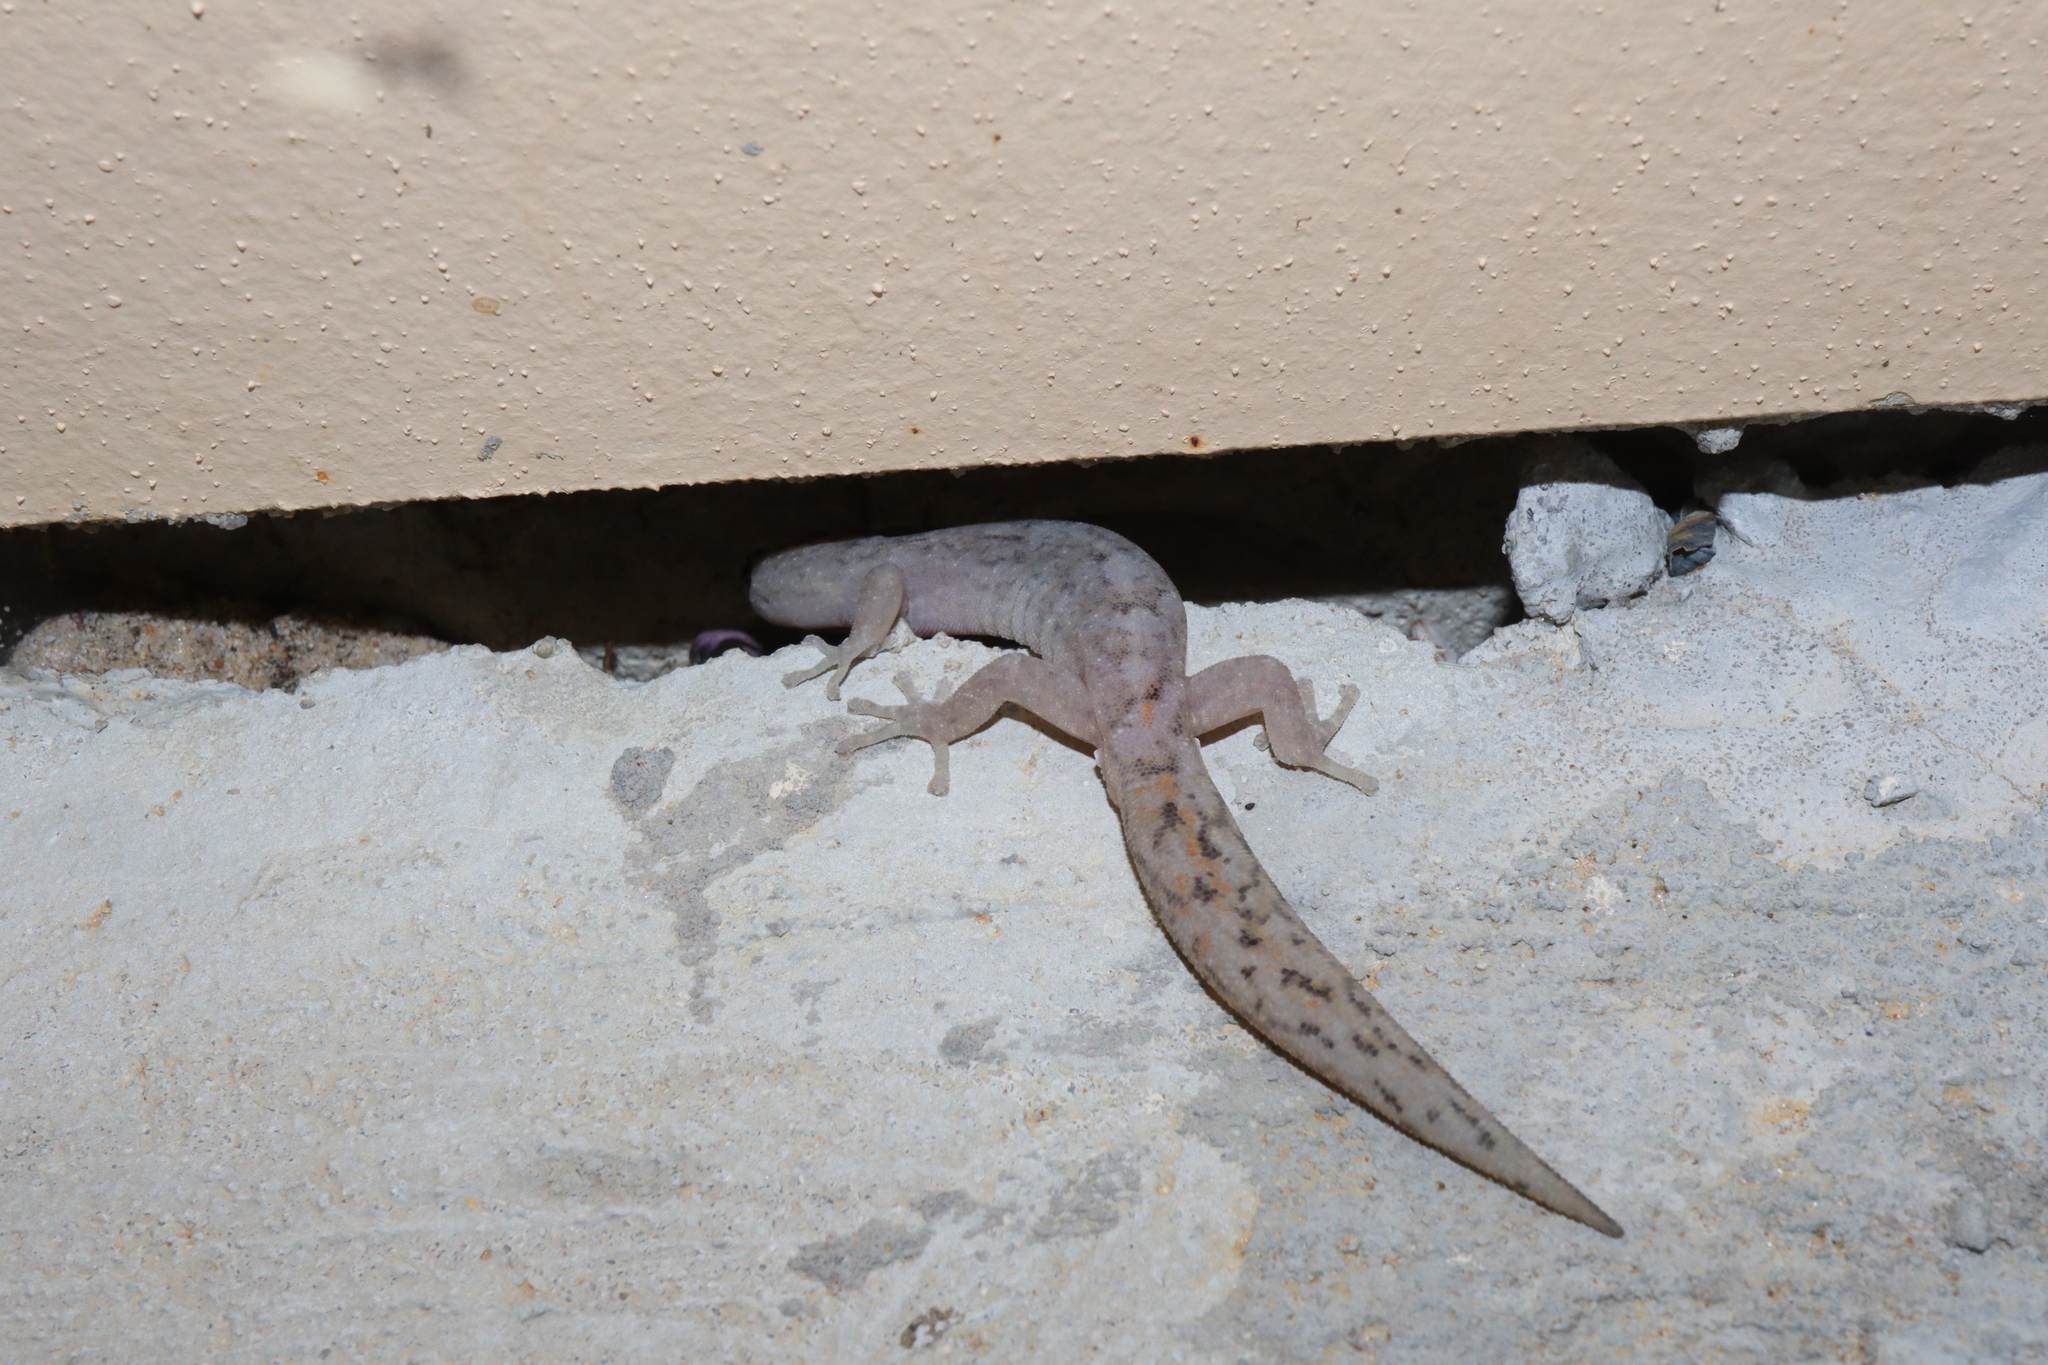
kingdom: Animalia
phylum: Chordata
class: Squamata
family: Gekkonidae
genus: Christinus
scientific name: Christinus marmoratus
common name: Marbled gecko
